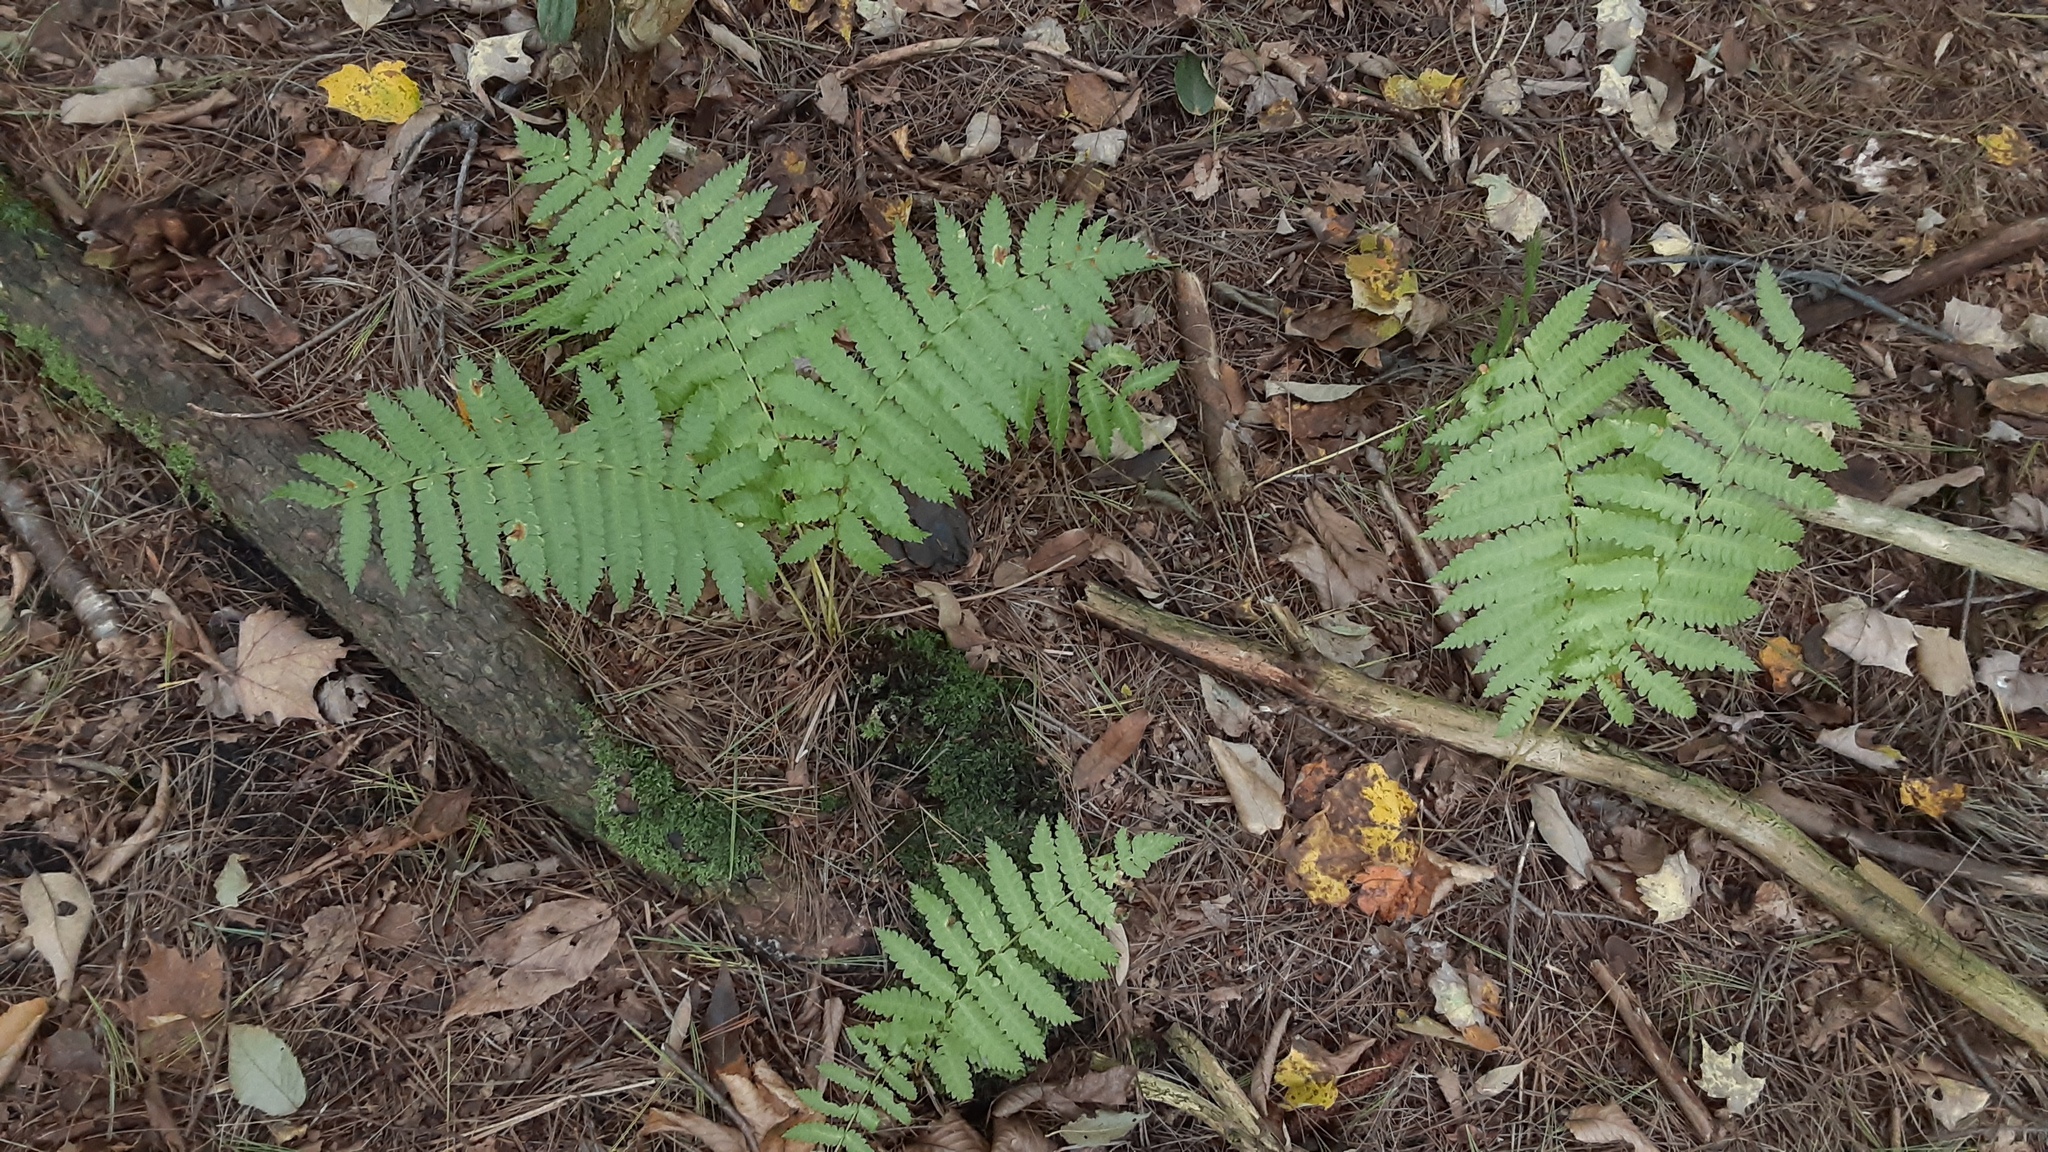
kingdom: Plantae
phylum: Tracheophyta
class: Polypodiopsida
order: Osmundales
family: Osmundaceae
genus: Claytosmunda
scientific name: Claytosmunda claytoniana
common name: Clayton's fern
